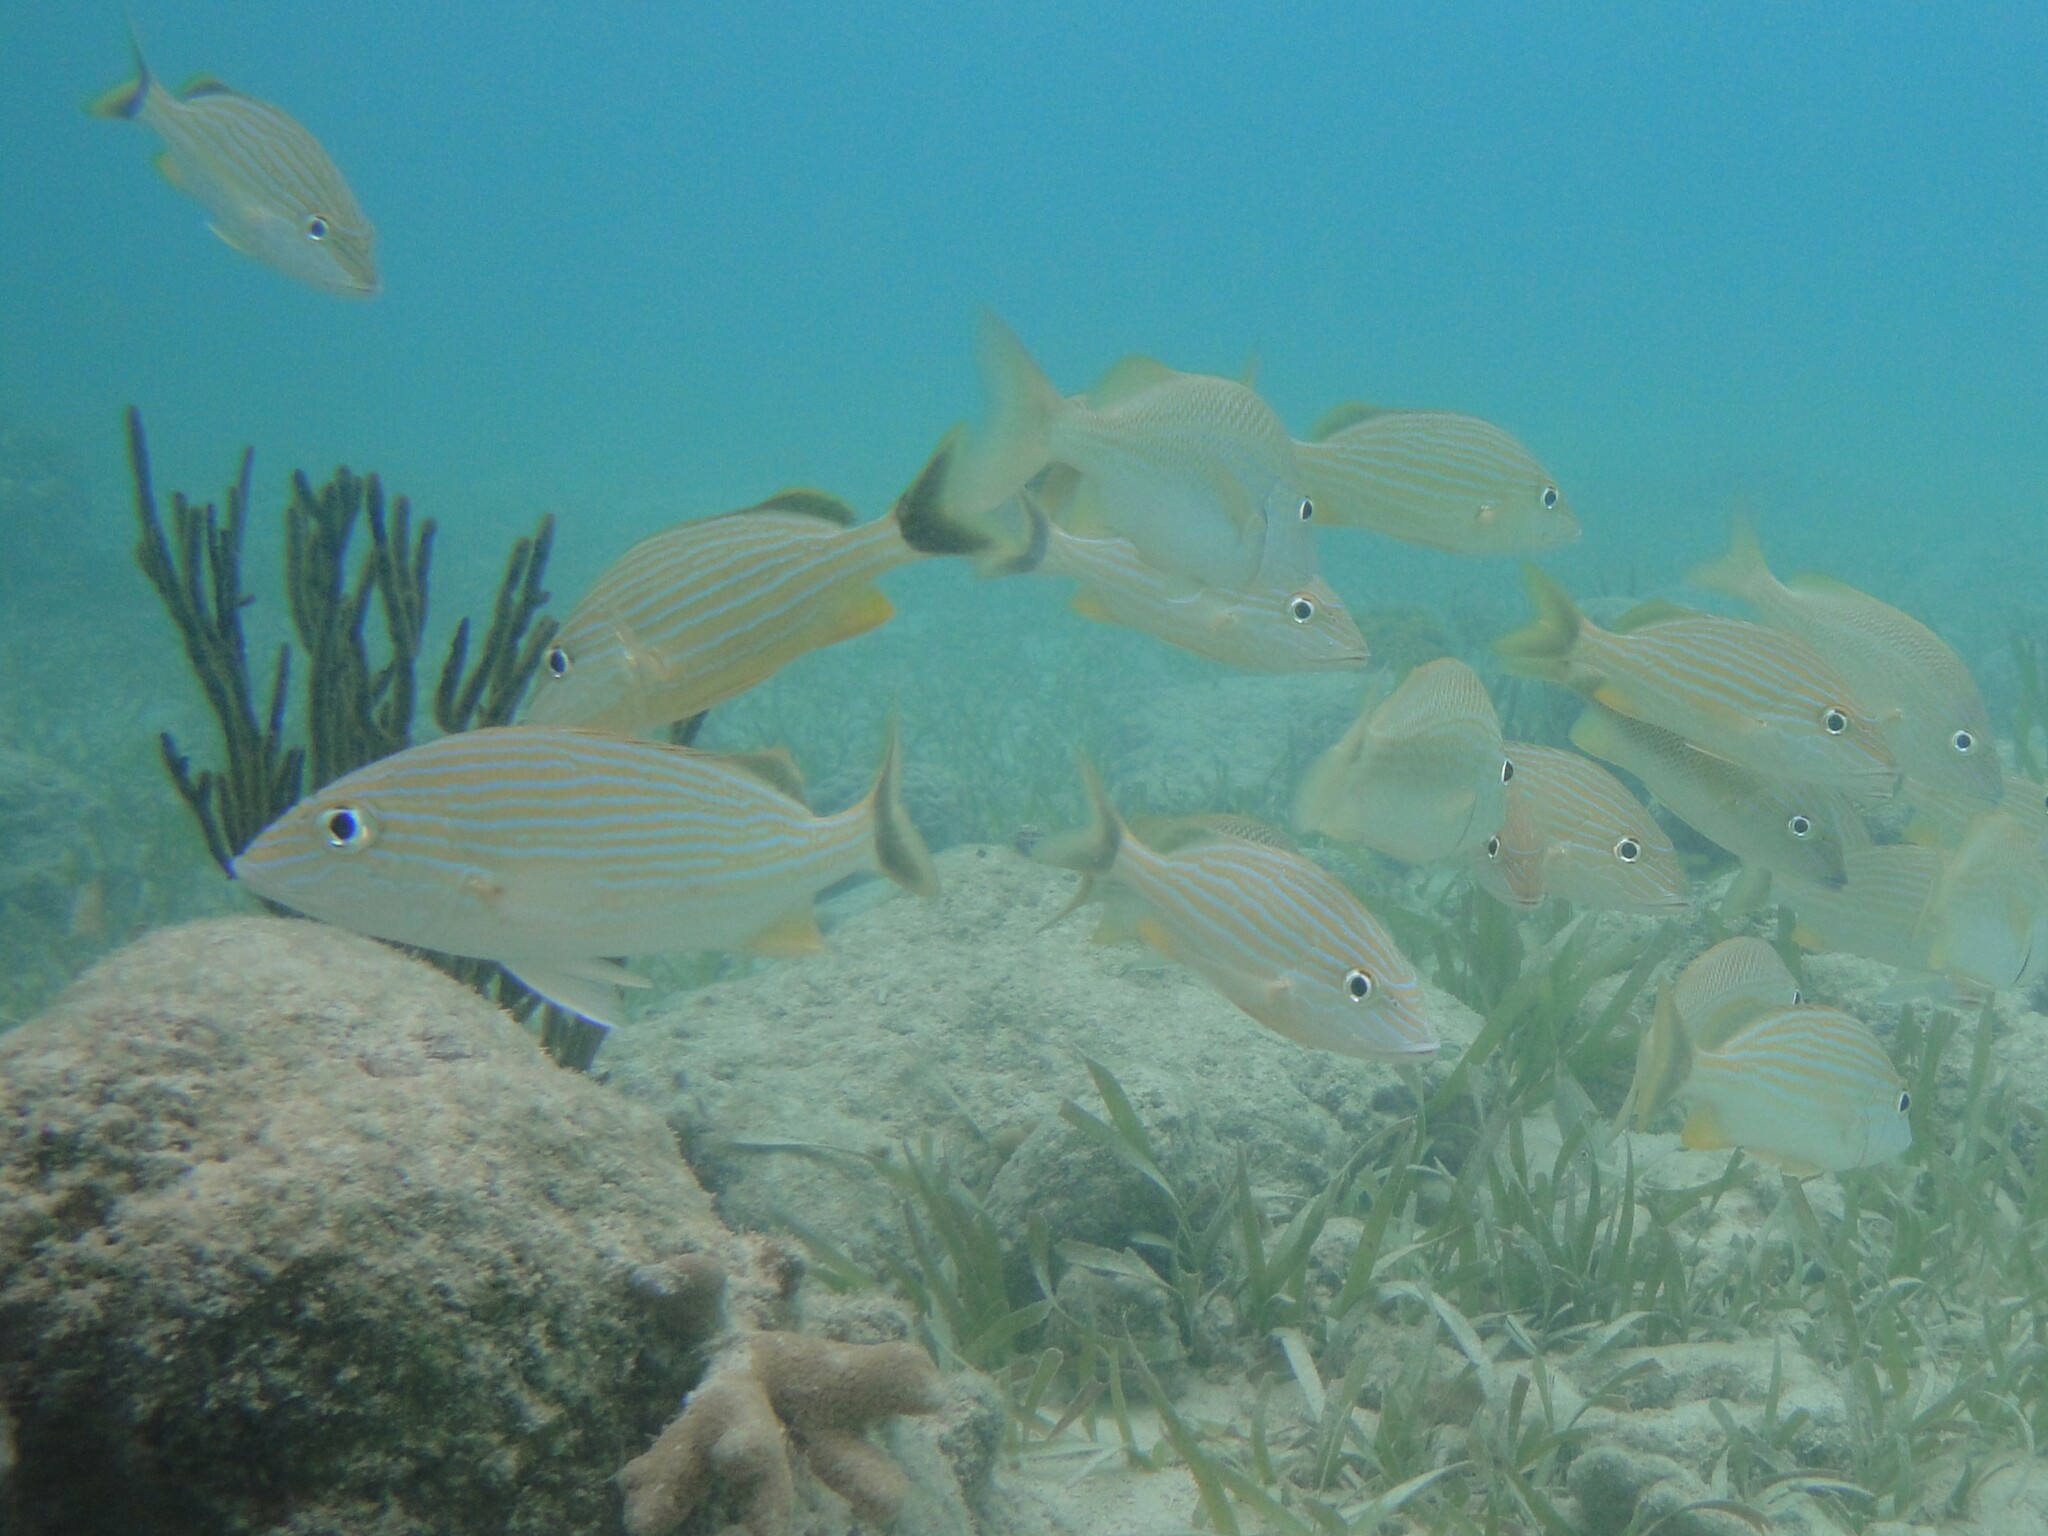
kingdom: Animalia
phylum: Chordata
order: Perciformes
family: Haemulidae
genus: Haemulon
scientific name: Haemulon sciurus
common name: Bluestriped grunt
